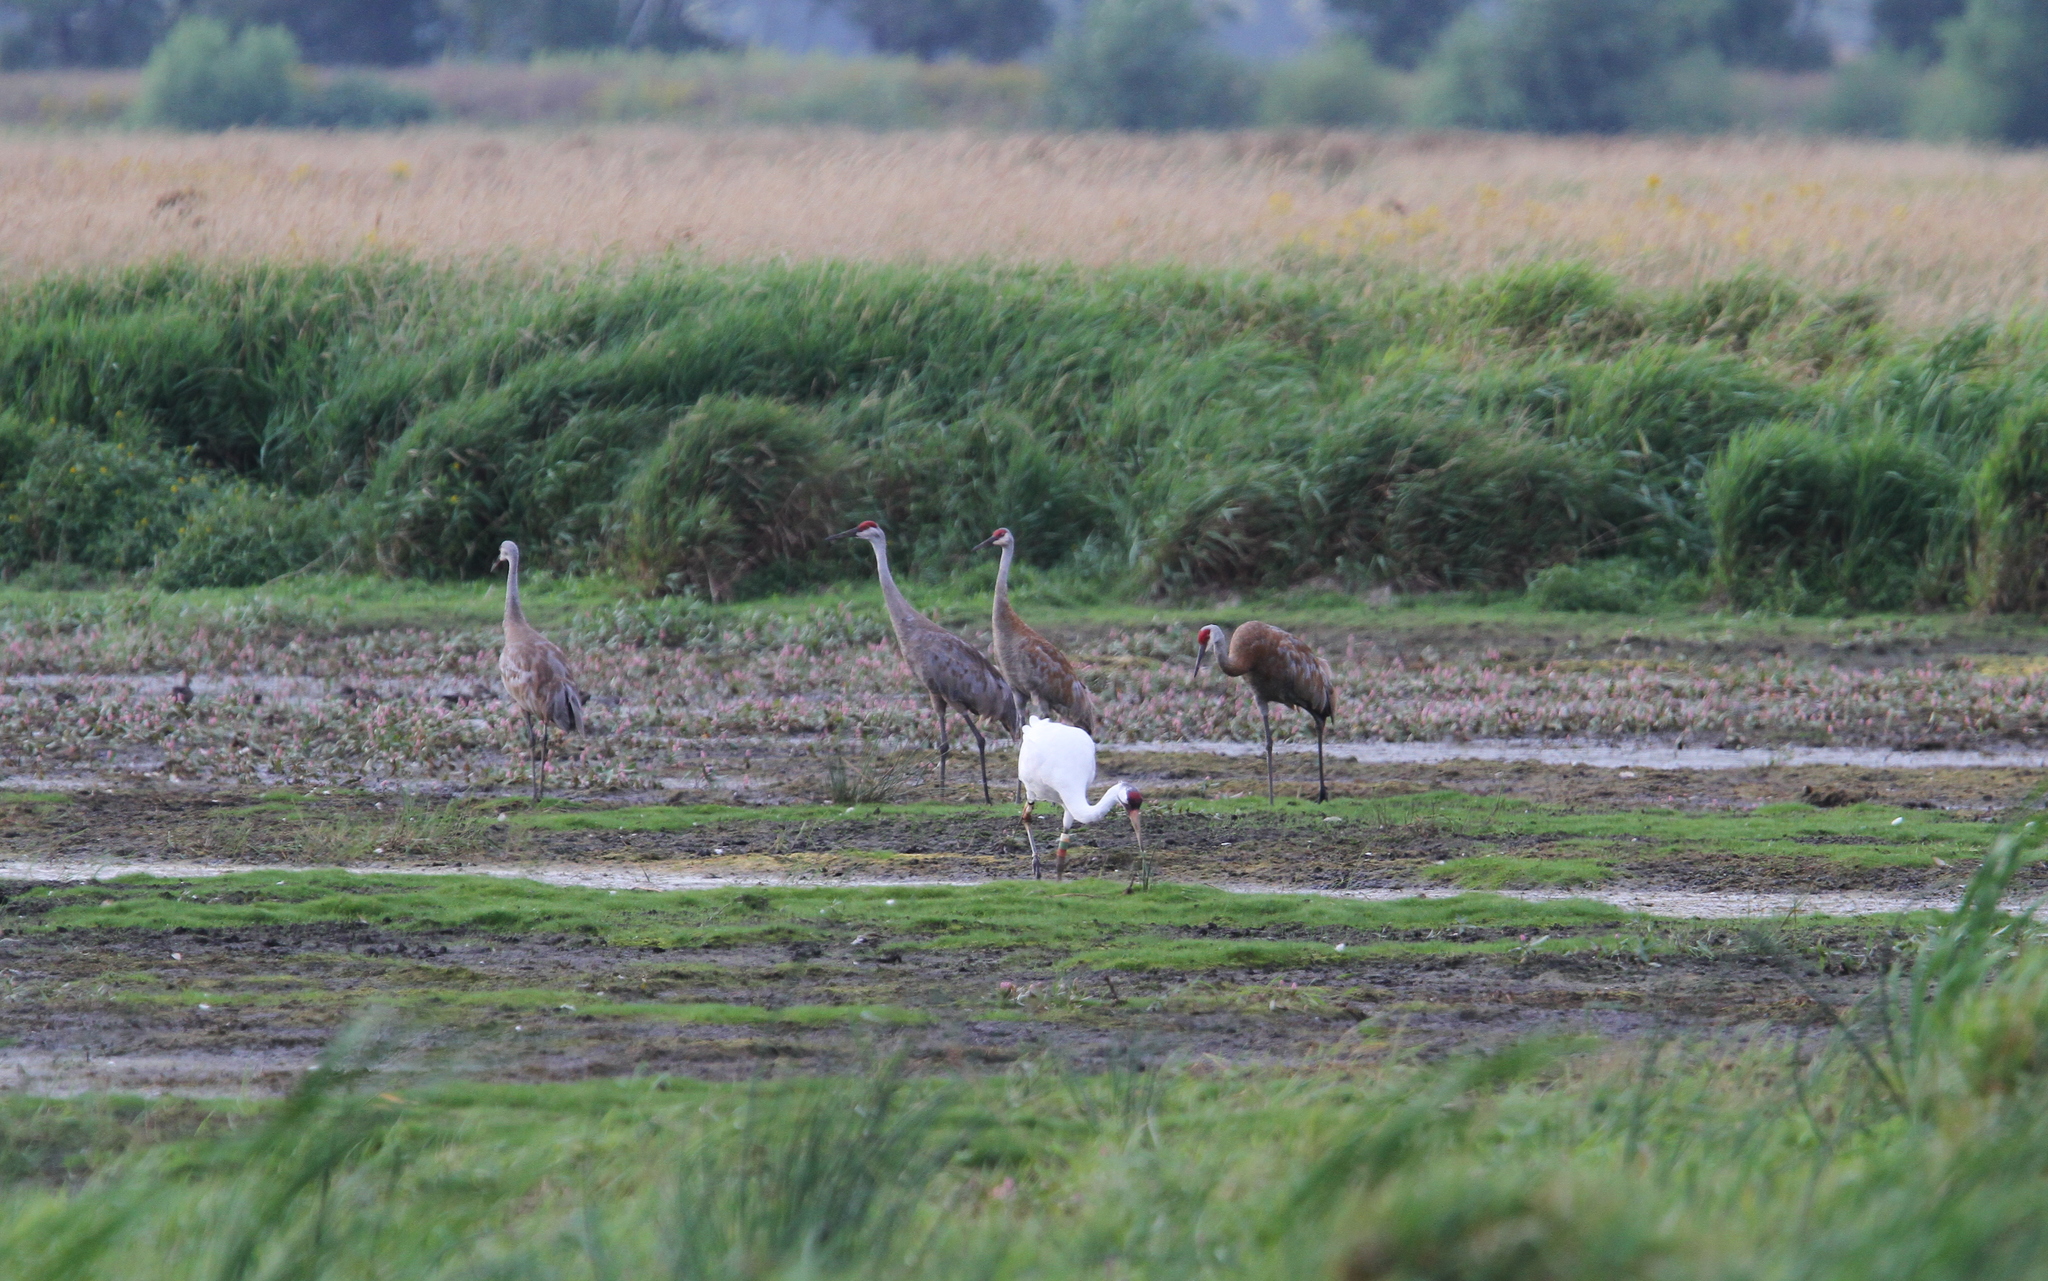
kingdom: Animalia
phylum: Chordata
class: Aves
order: Gruiformes
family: Gruidae
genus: Grus
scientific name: Grus canadensis
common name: Sandhill crane
